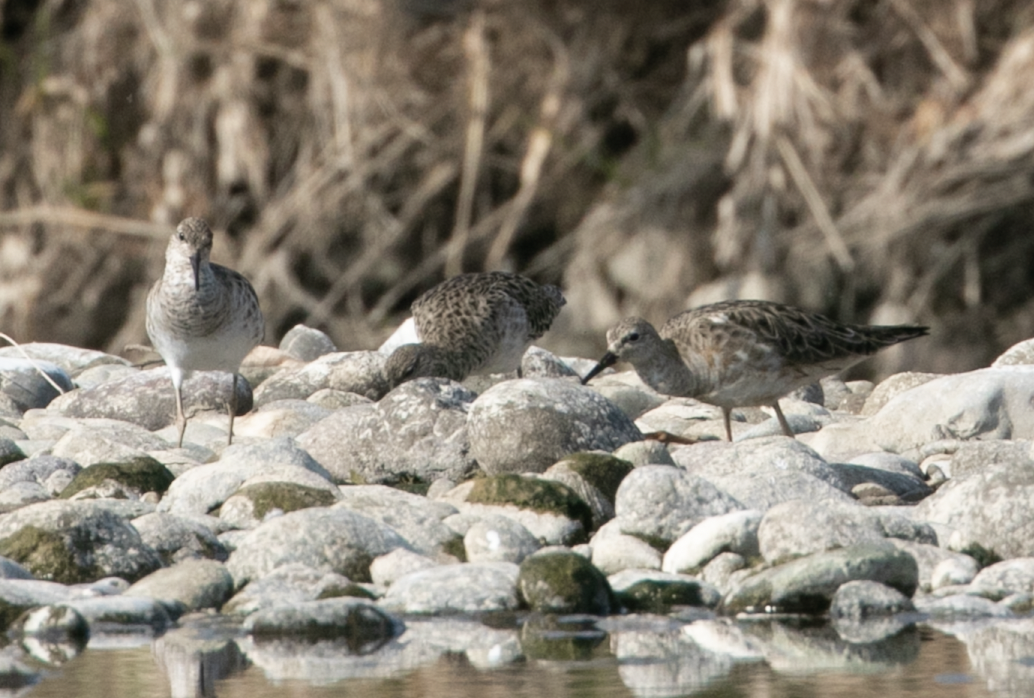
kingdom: Animalia
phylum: Chordata
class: Aves
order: Charadriiformes
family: Scolopacidae
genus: Calidris
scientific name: Calidris pugnax
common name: Ruff
